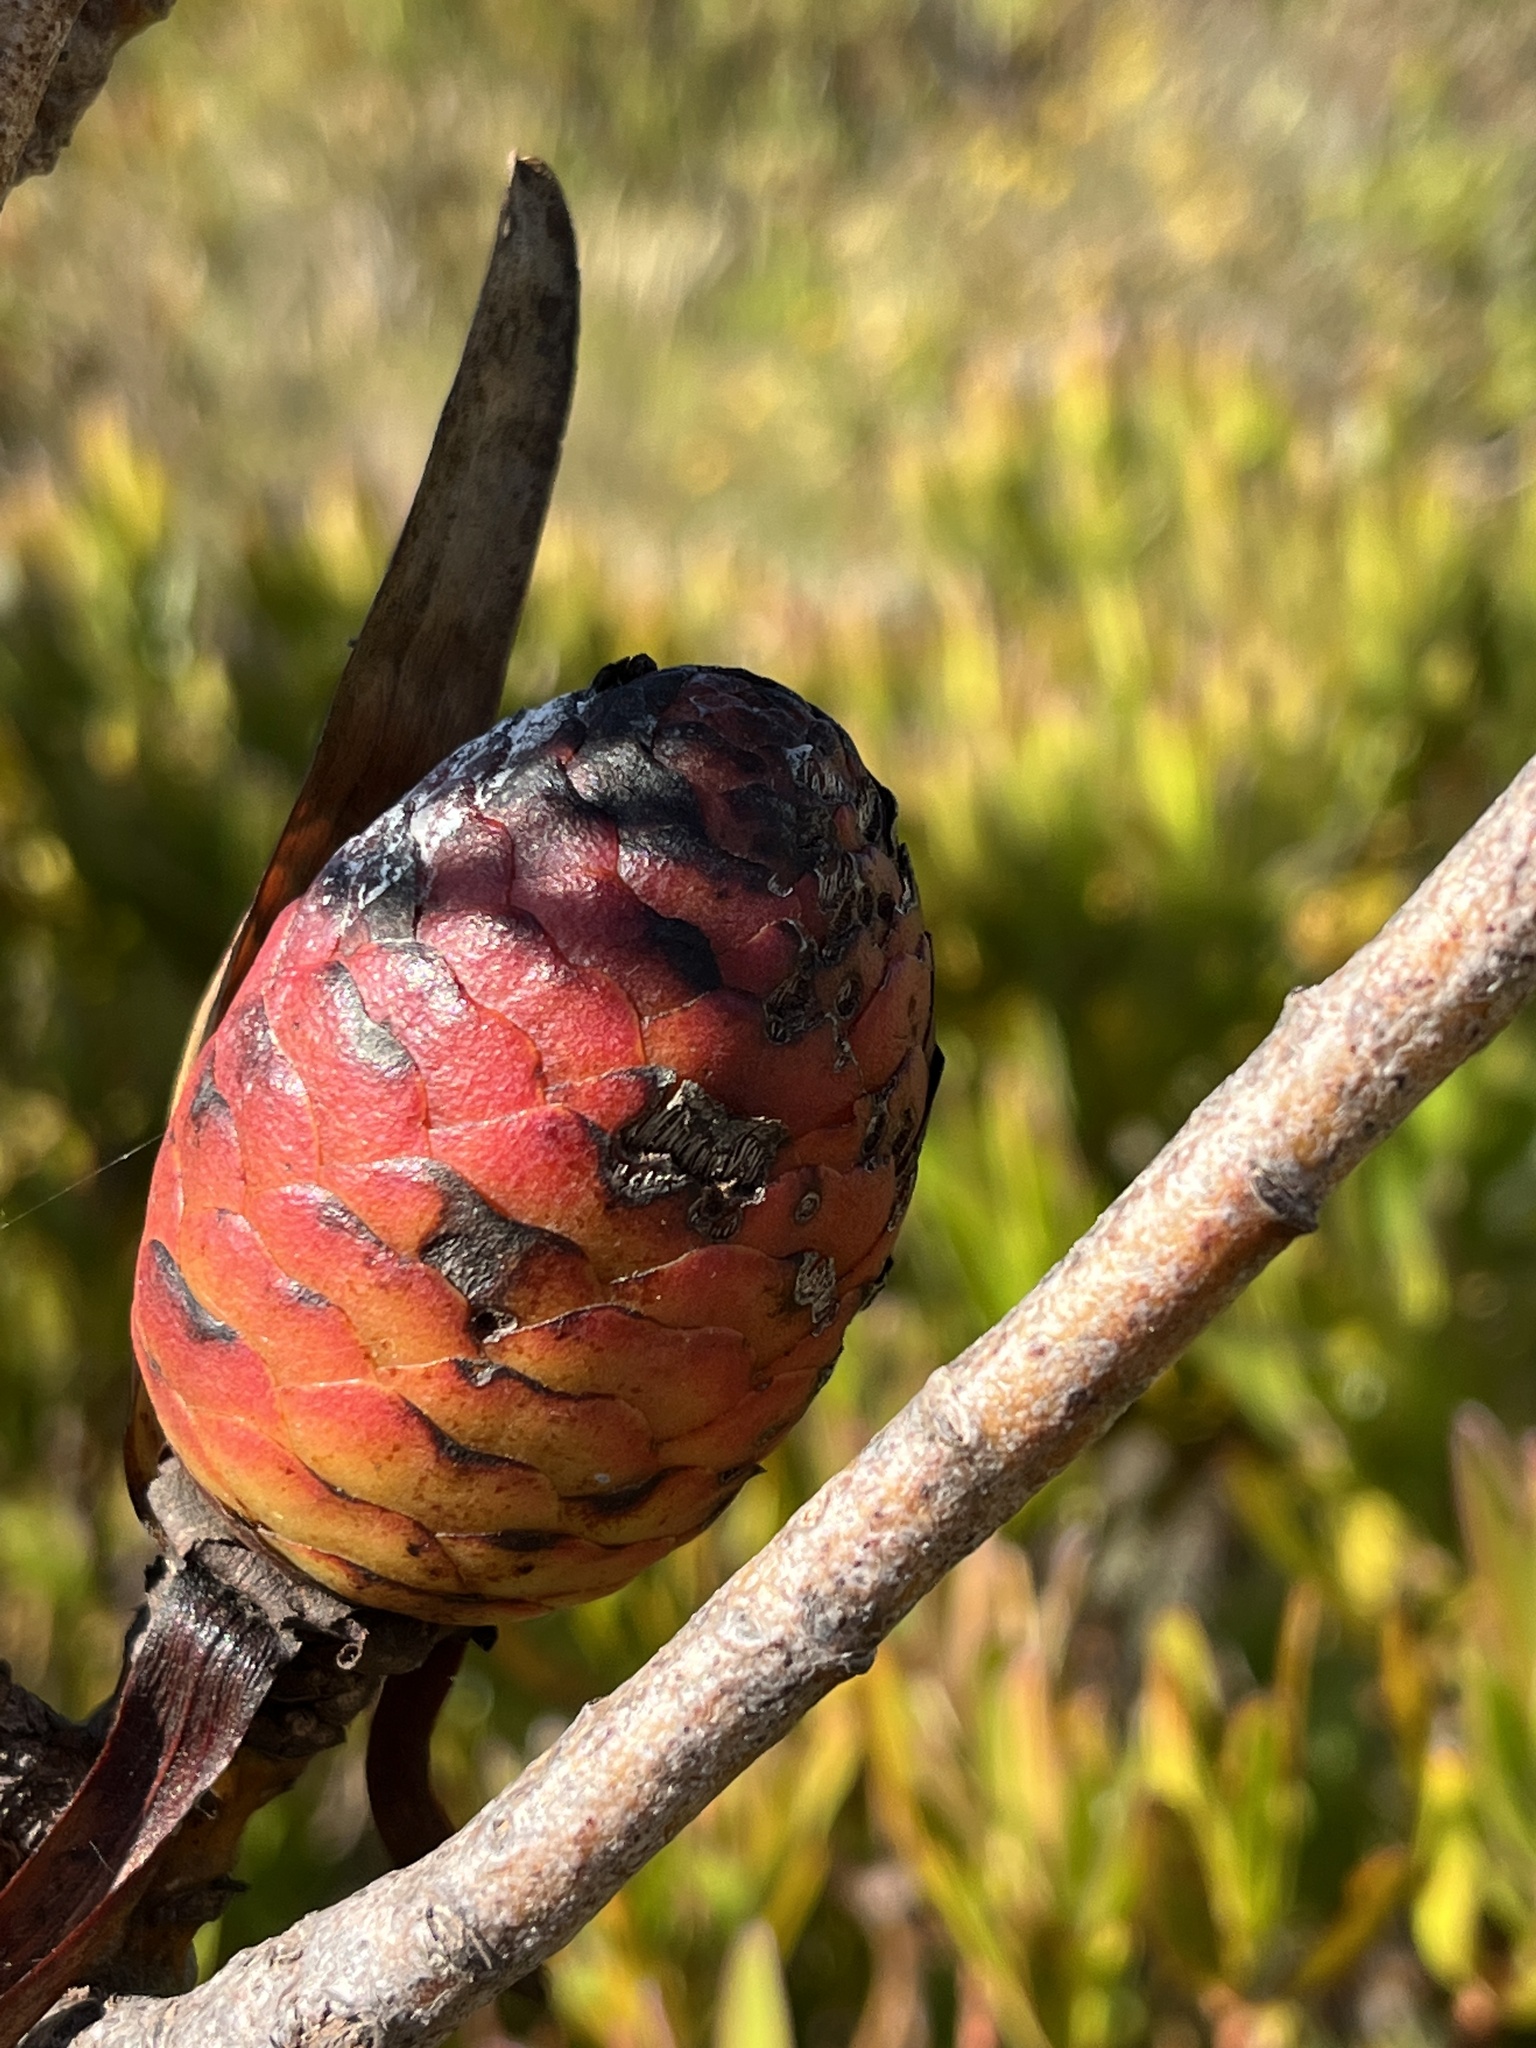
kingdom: Plantae
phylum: Tracheophyta
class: Magnoliopsida
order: Proteales
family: Proteaceae
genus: Leucadendron
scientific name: Leucadendron laureolum
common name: Golden sunshinebush
